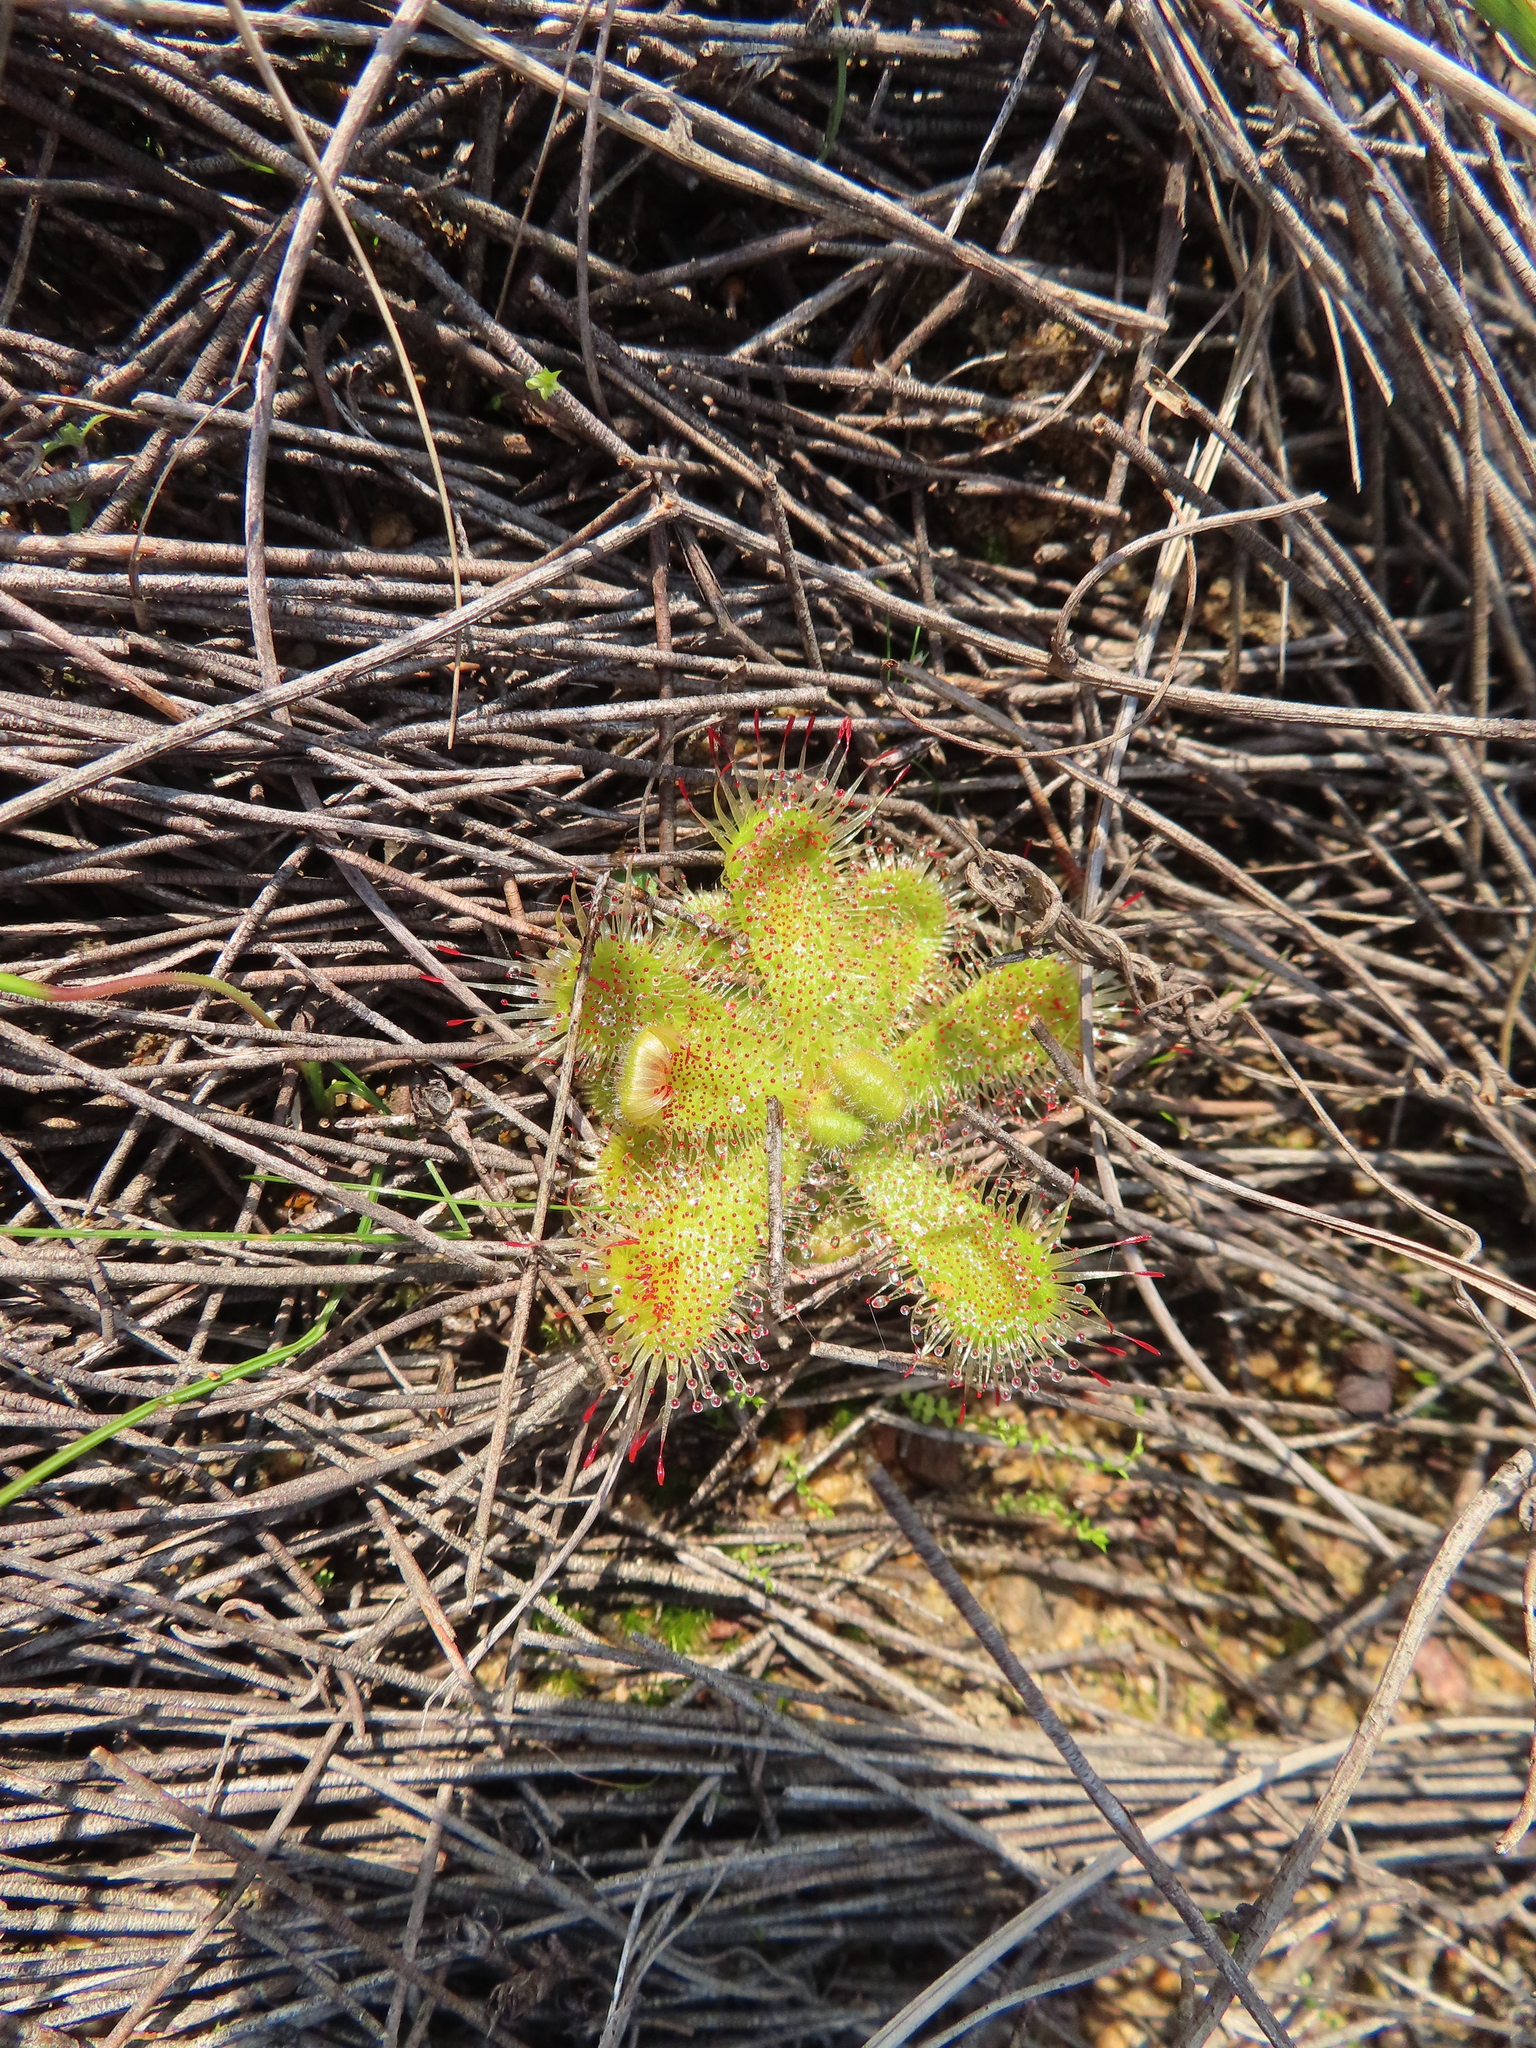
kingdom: Plantae
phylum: Tracheophyta
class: Magnoliopsida
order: Caryophyllales
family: Droseraceae
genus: Drosera
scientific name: Drosera pauciflora
